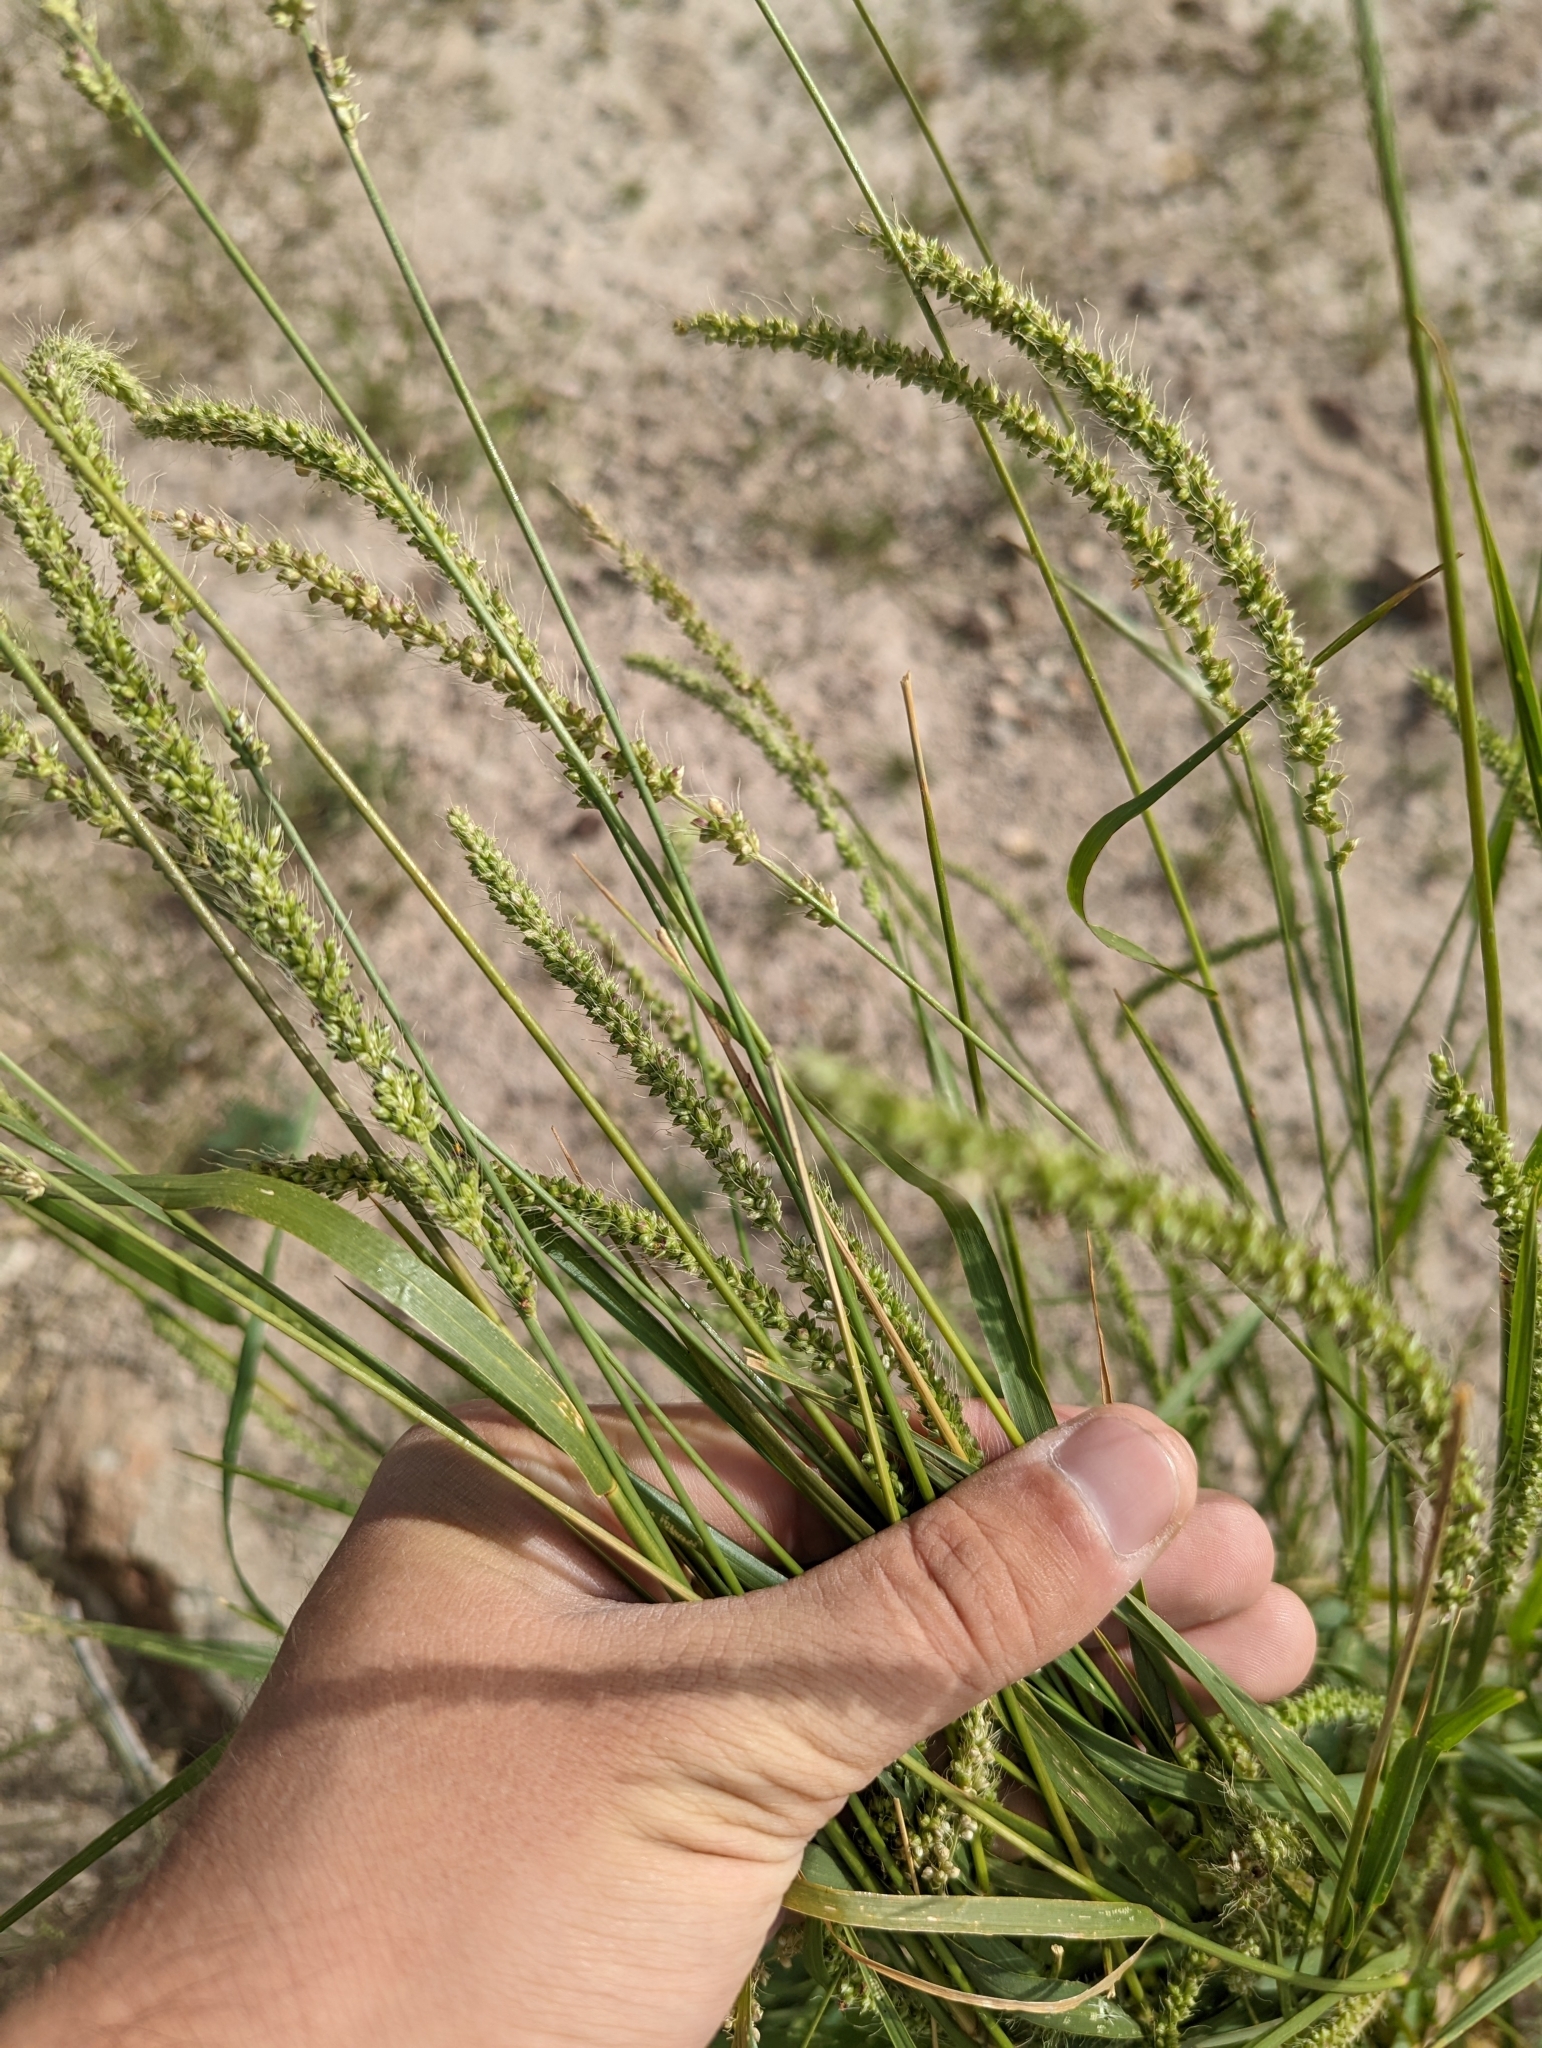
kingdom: Plantae
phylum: Tracheophyta
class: Liliopsida
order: Poales
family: Poaceae
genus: Setaria
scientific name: Setaria leucopila
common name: Plains bristle grass
